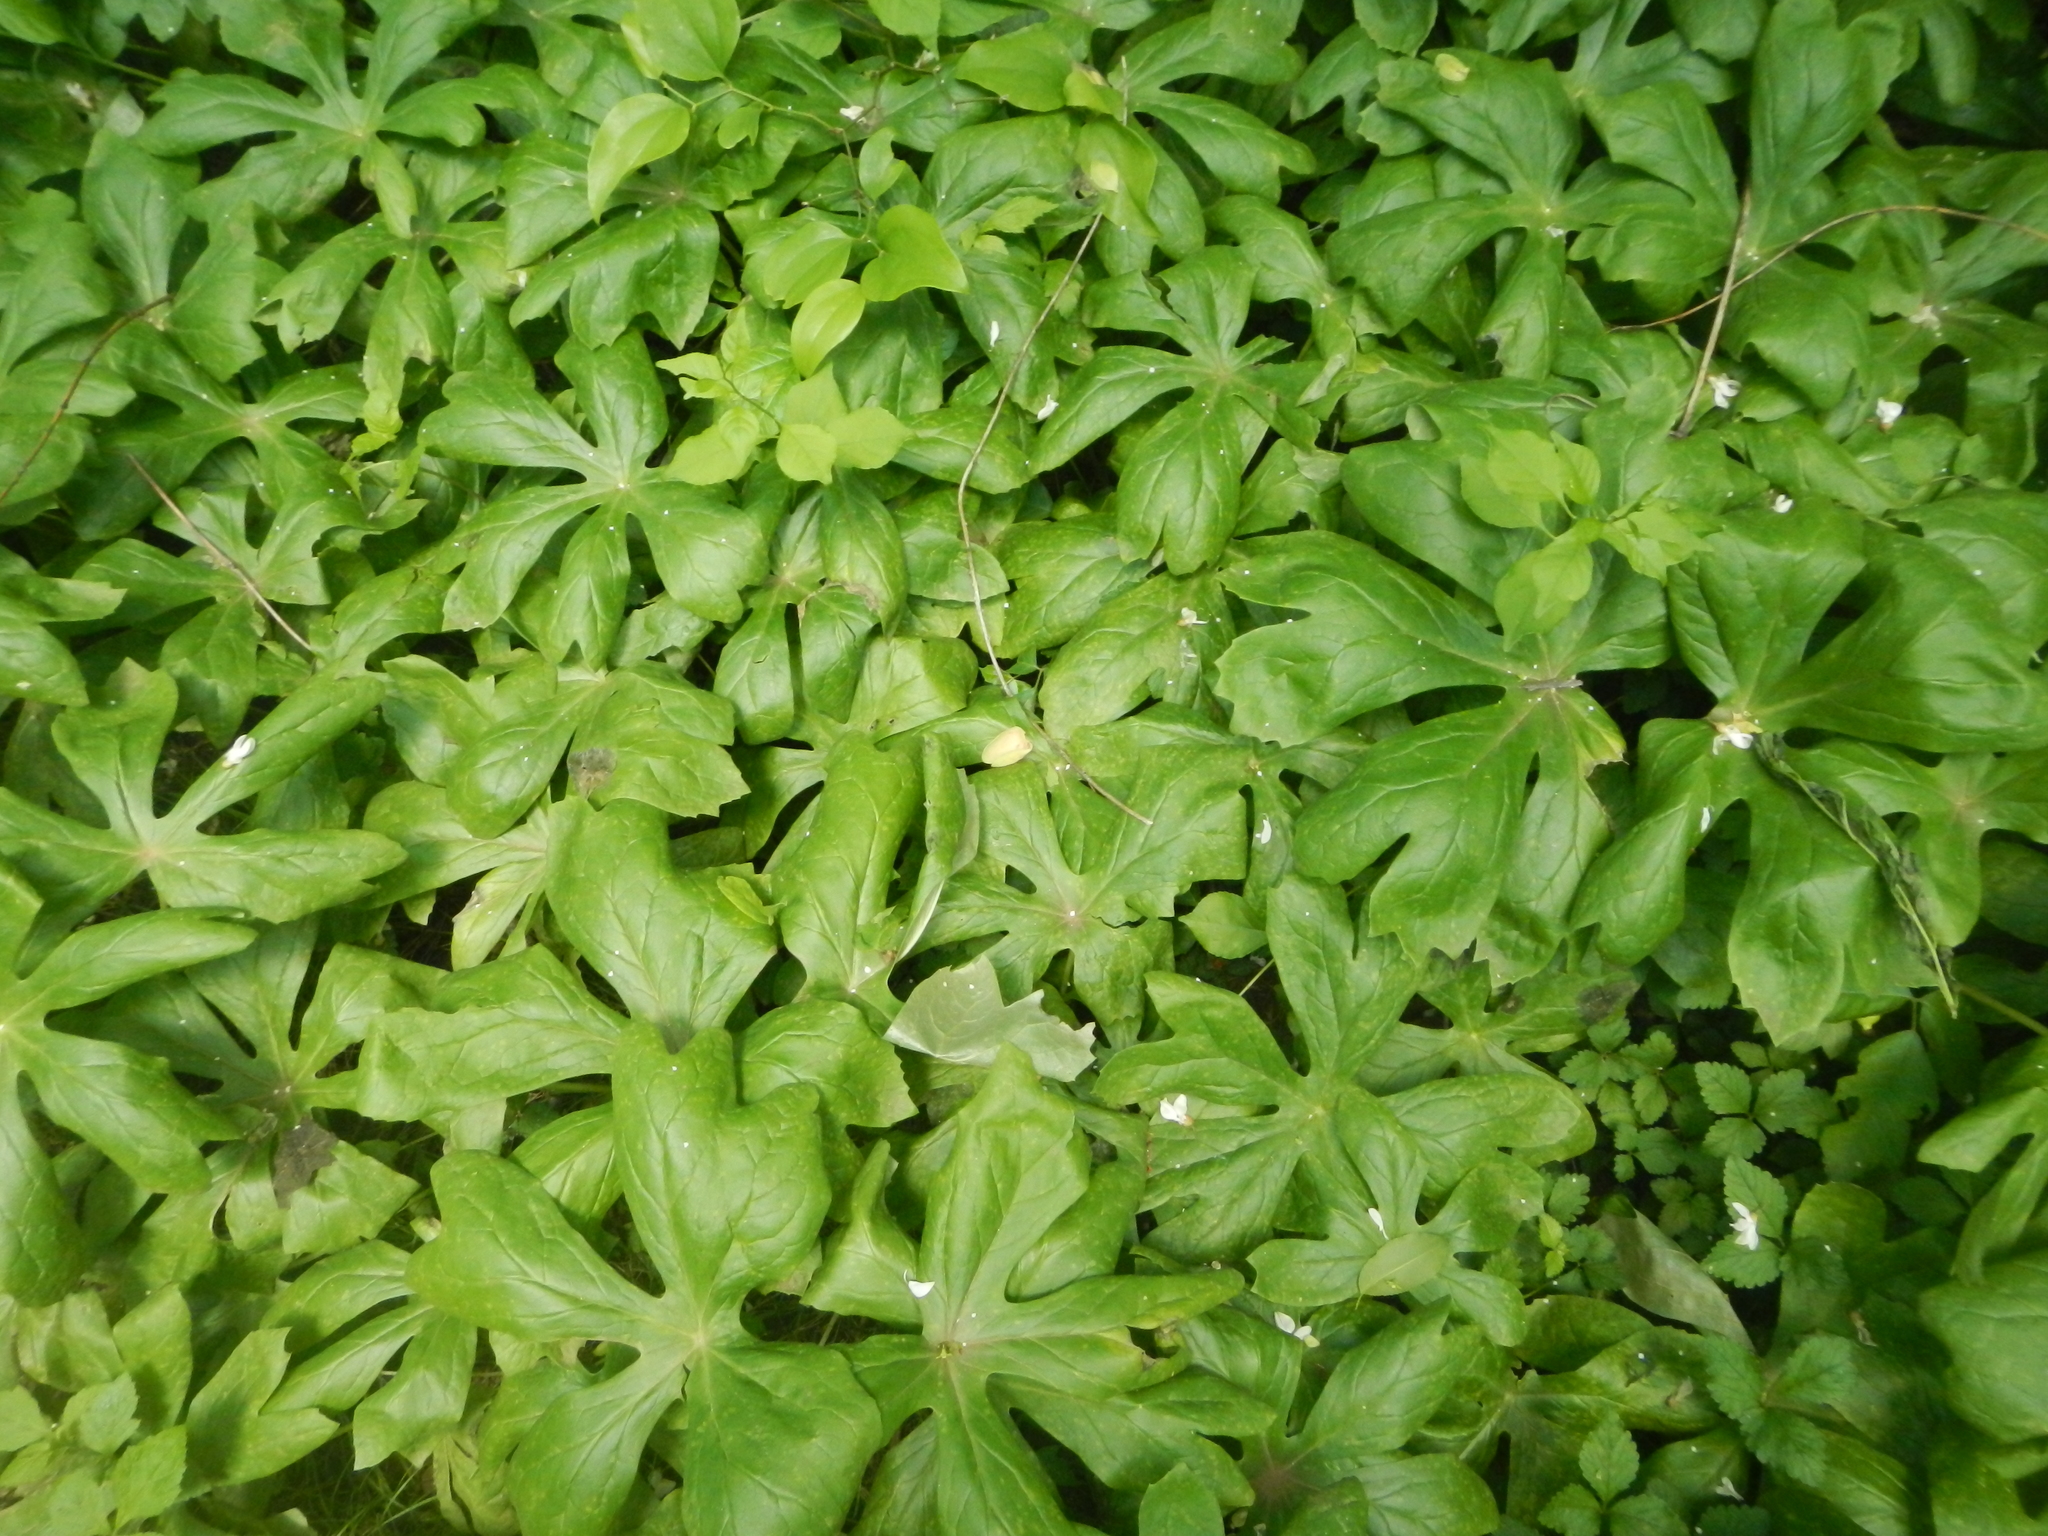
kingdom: Plantae
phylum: Tracheophyta
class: Magnoliopsida
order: Ranunculales
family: Berberidaceae
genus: Podophyllum
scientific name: Podophyllum peltatum
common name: Wild mandrake
